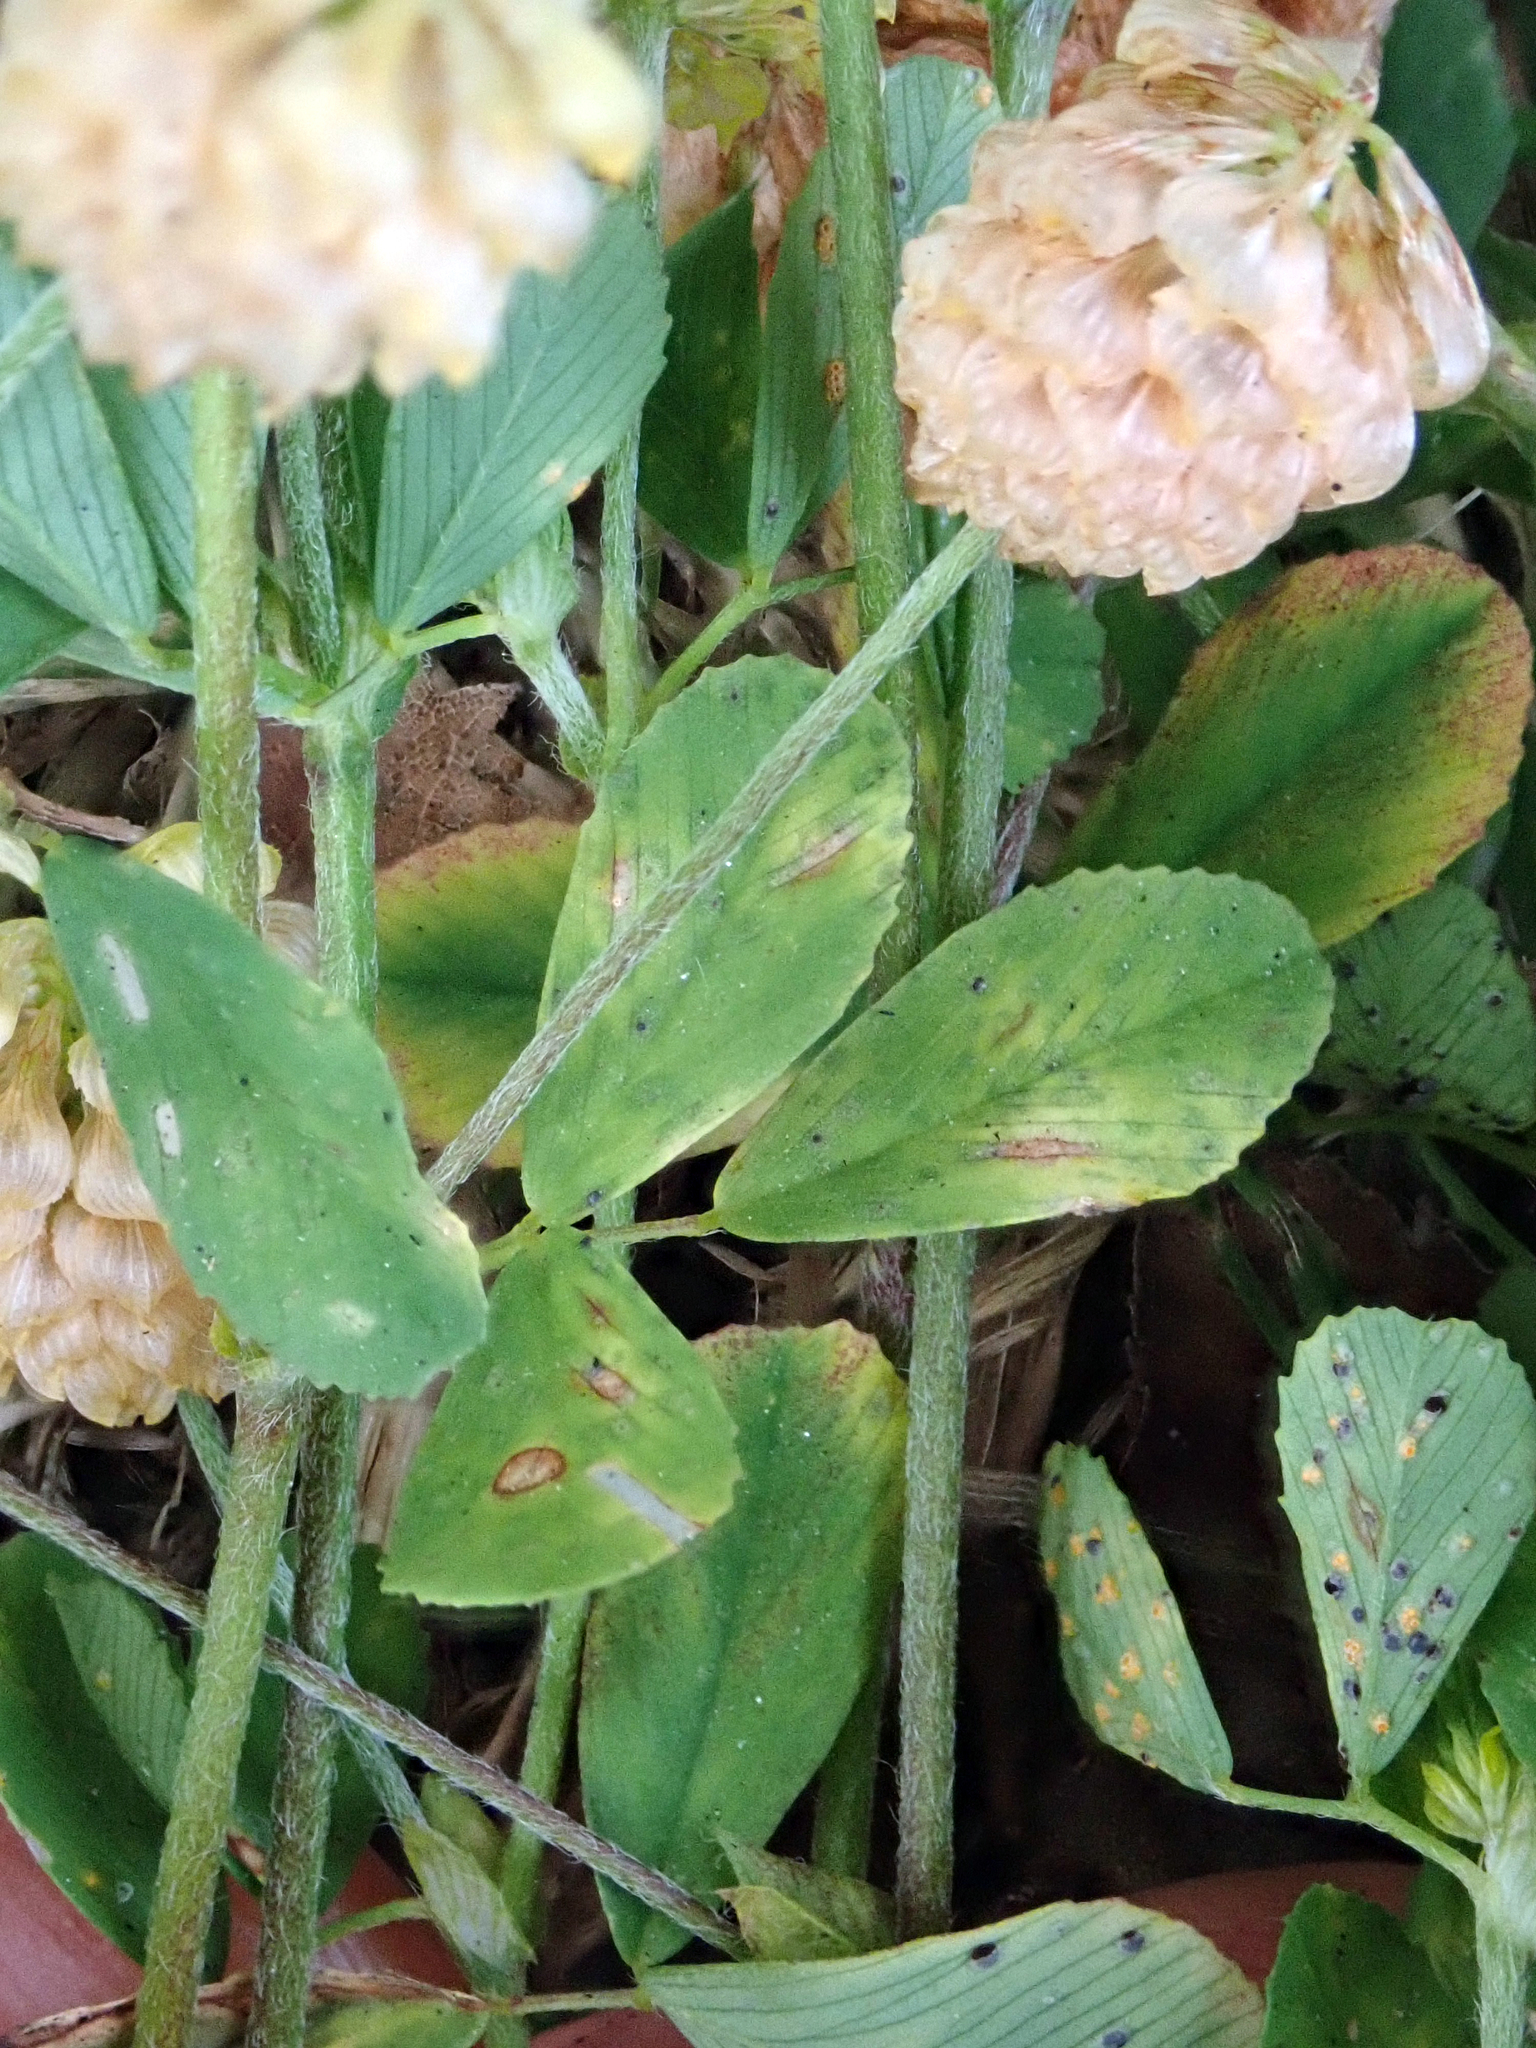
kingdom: Plantae
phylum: Tracheophyta
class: Magnoliopsida
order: Fabales
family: Fabaceae
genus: Trifolium
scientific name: Trifolium campestre
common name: Field clover
